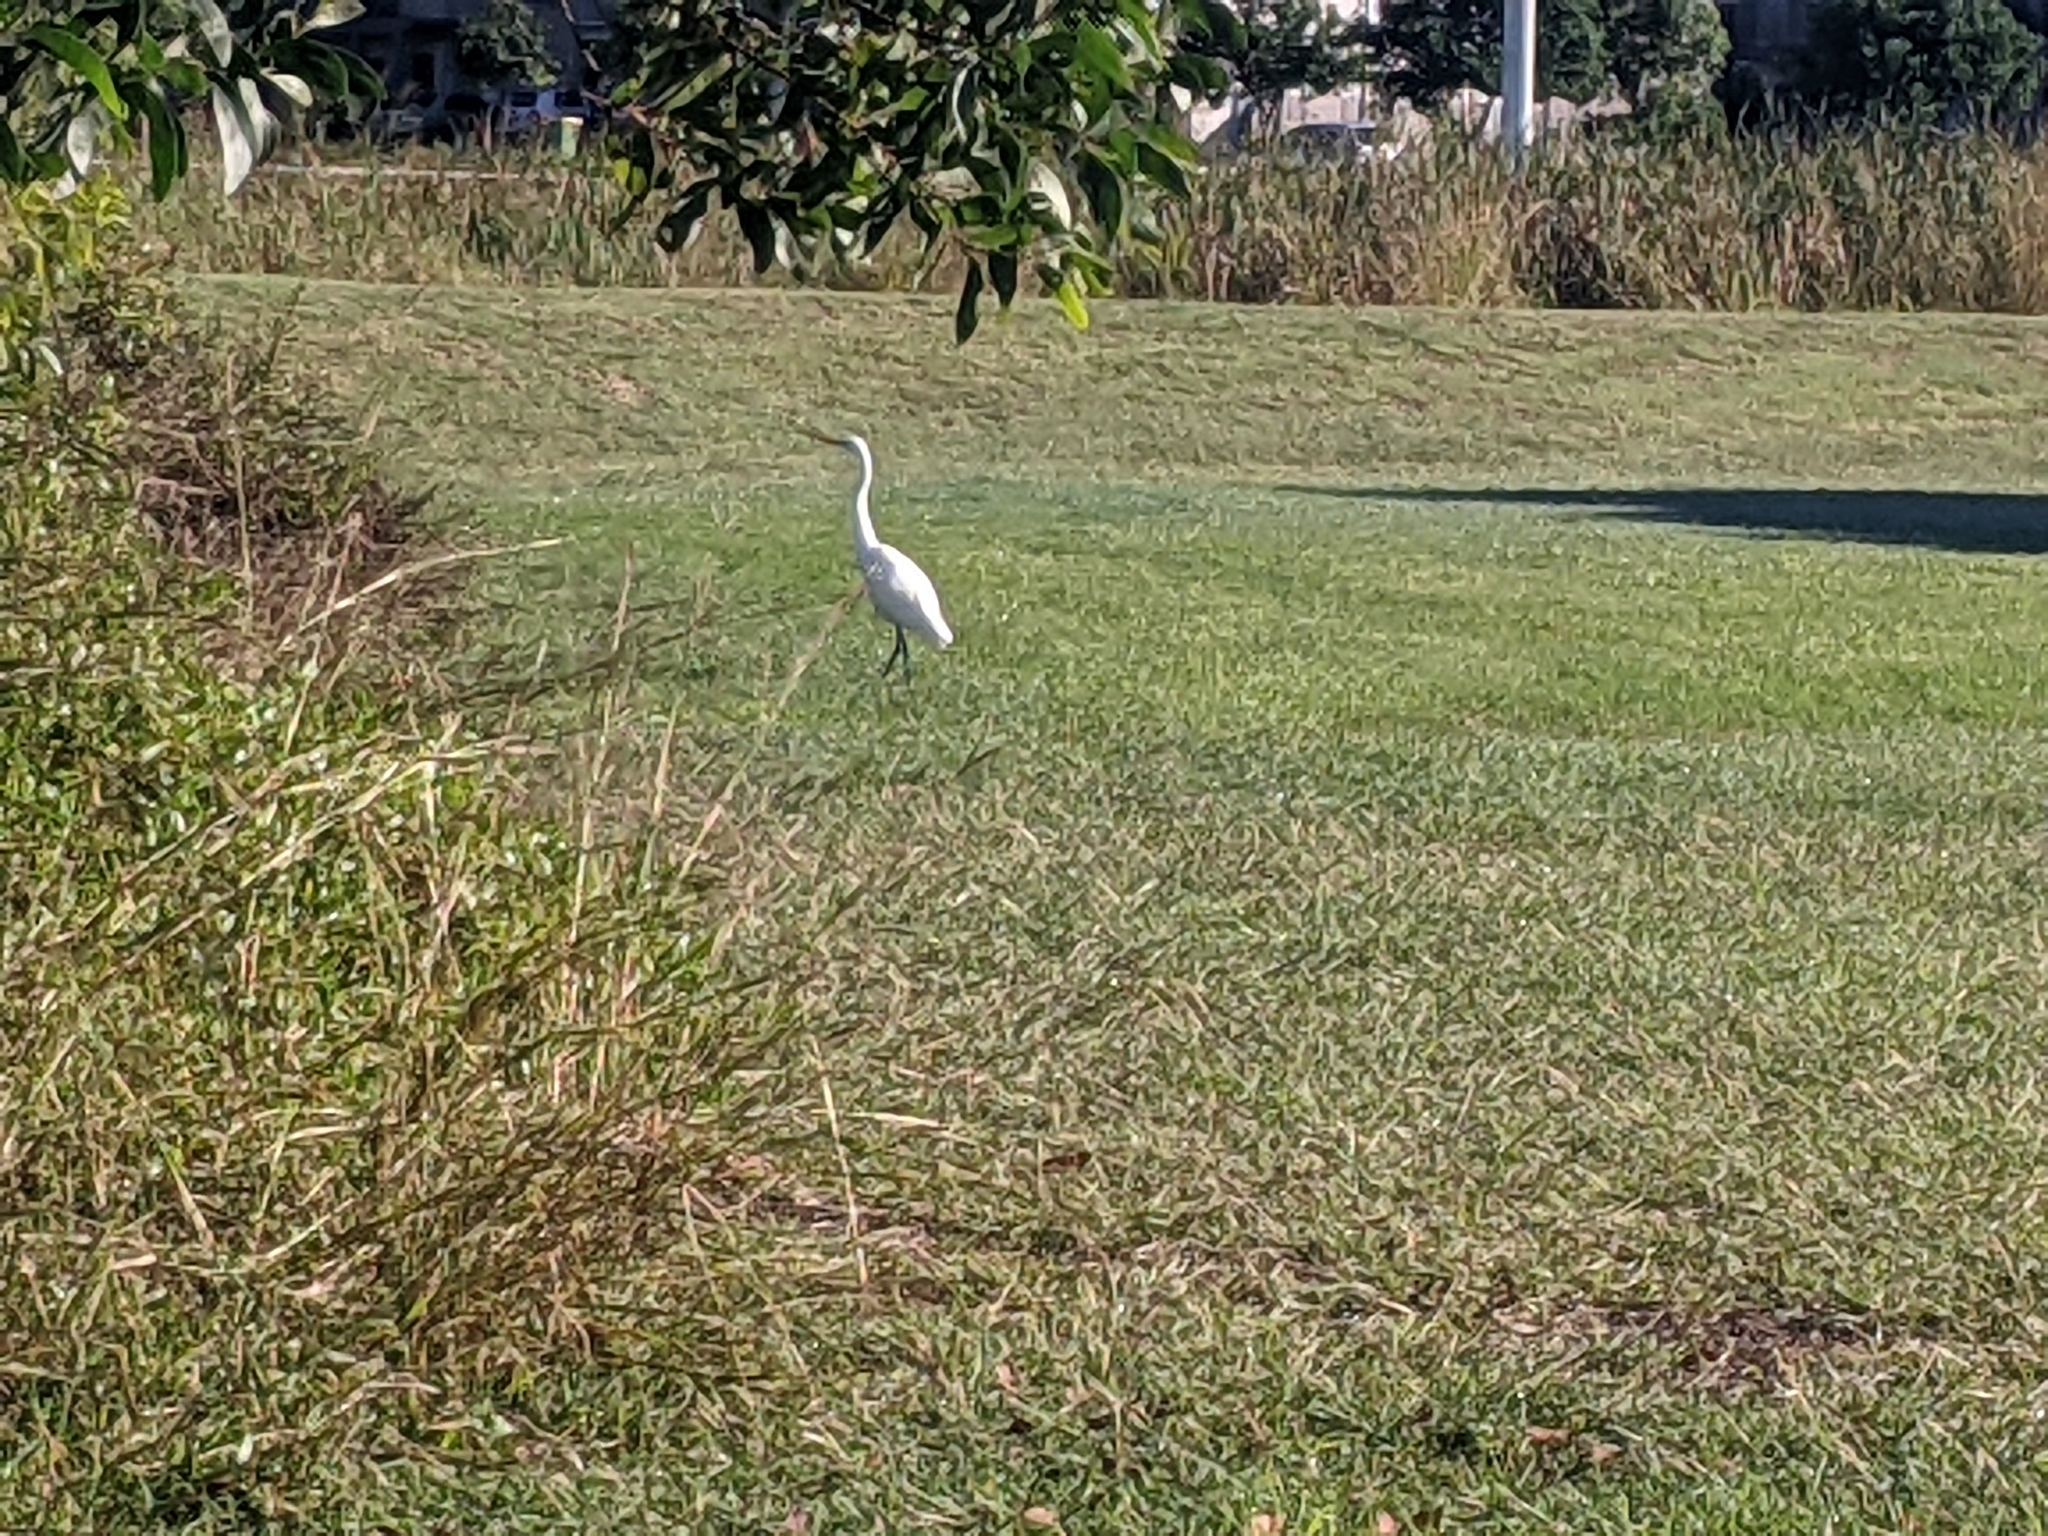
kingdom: Animalia
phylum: Chordata
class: Aves
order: Pelecaniformes
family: Ardeidae
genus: Egretta
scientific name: Egretta intermedia
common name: Intermediate egret
